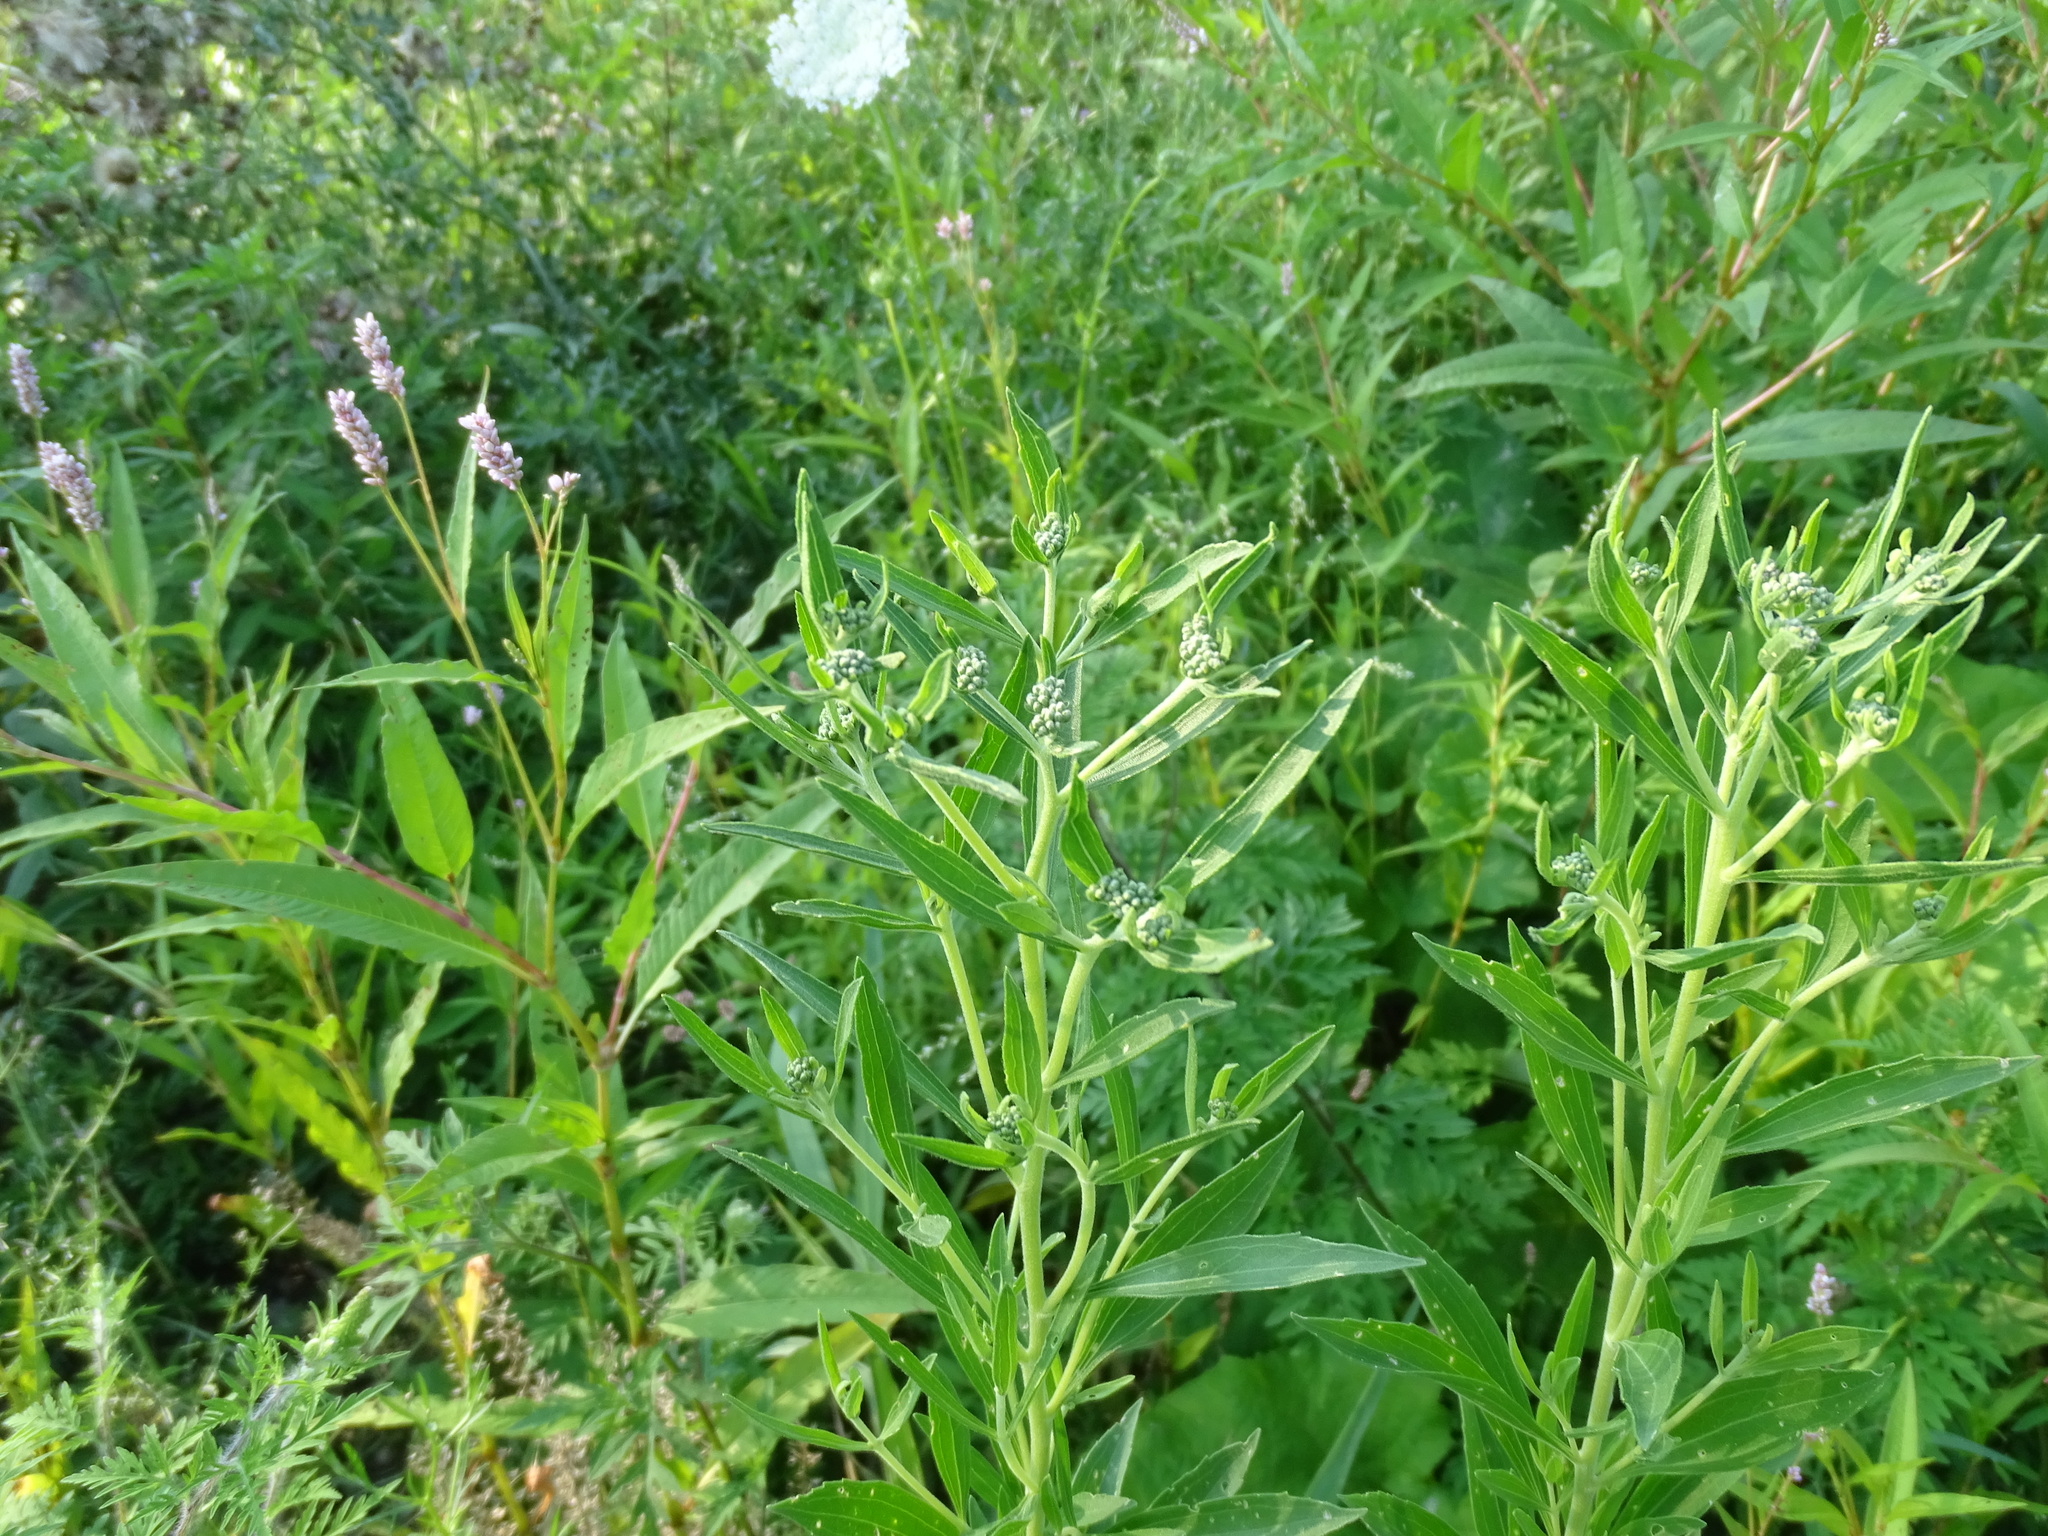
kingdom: Plantae
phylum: Tracheophyta
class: Magnoliopsida
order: Asterales
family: Asteraceae
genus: Eupatorium
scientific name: Eupatorium altissimum
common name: Tall thoroughwort
